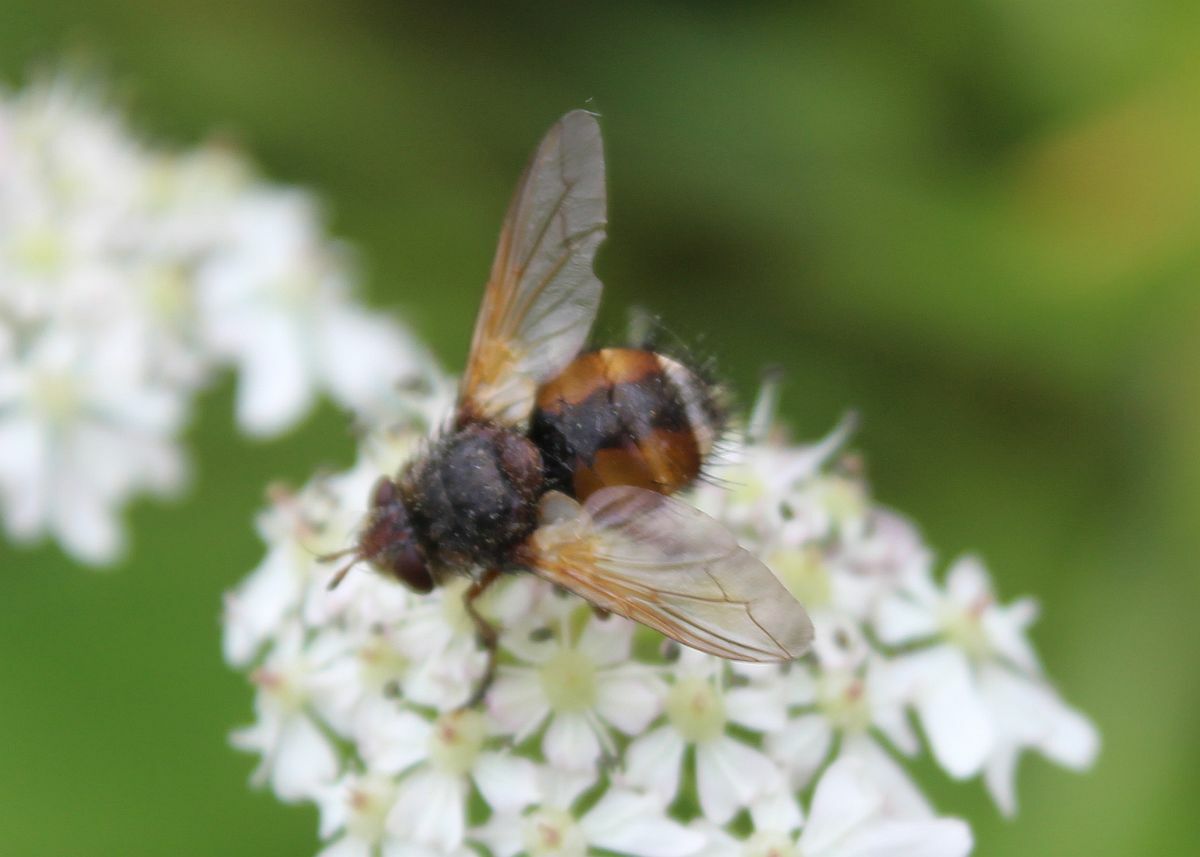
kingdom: Animalia
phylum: Arthropoda
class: Insecta
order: Diptera
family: Tachinidae
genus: Tachina
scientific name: Tachina fera
